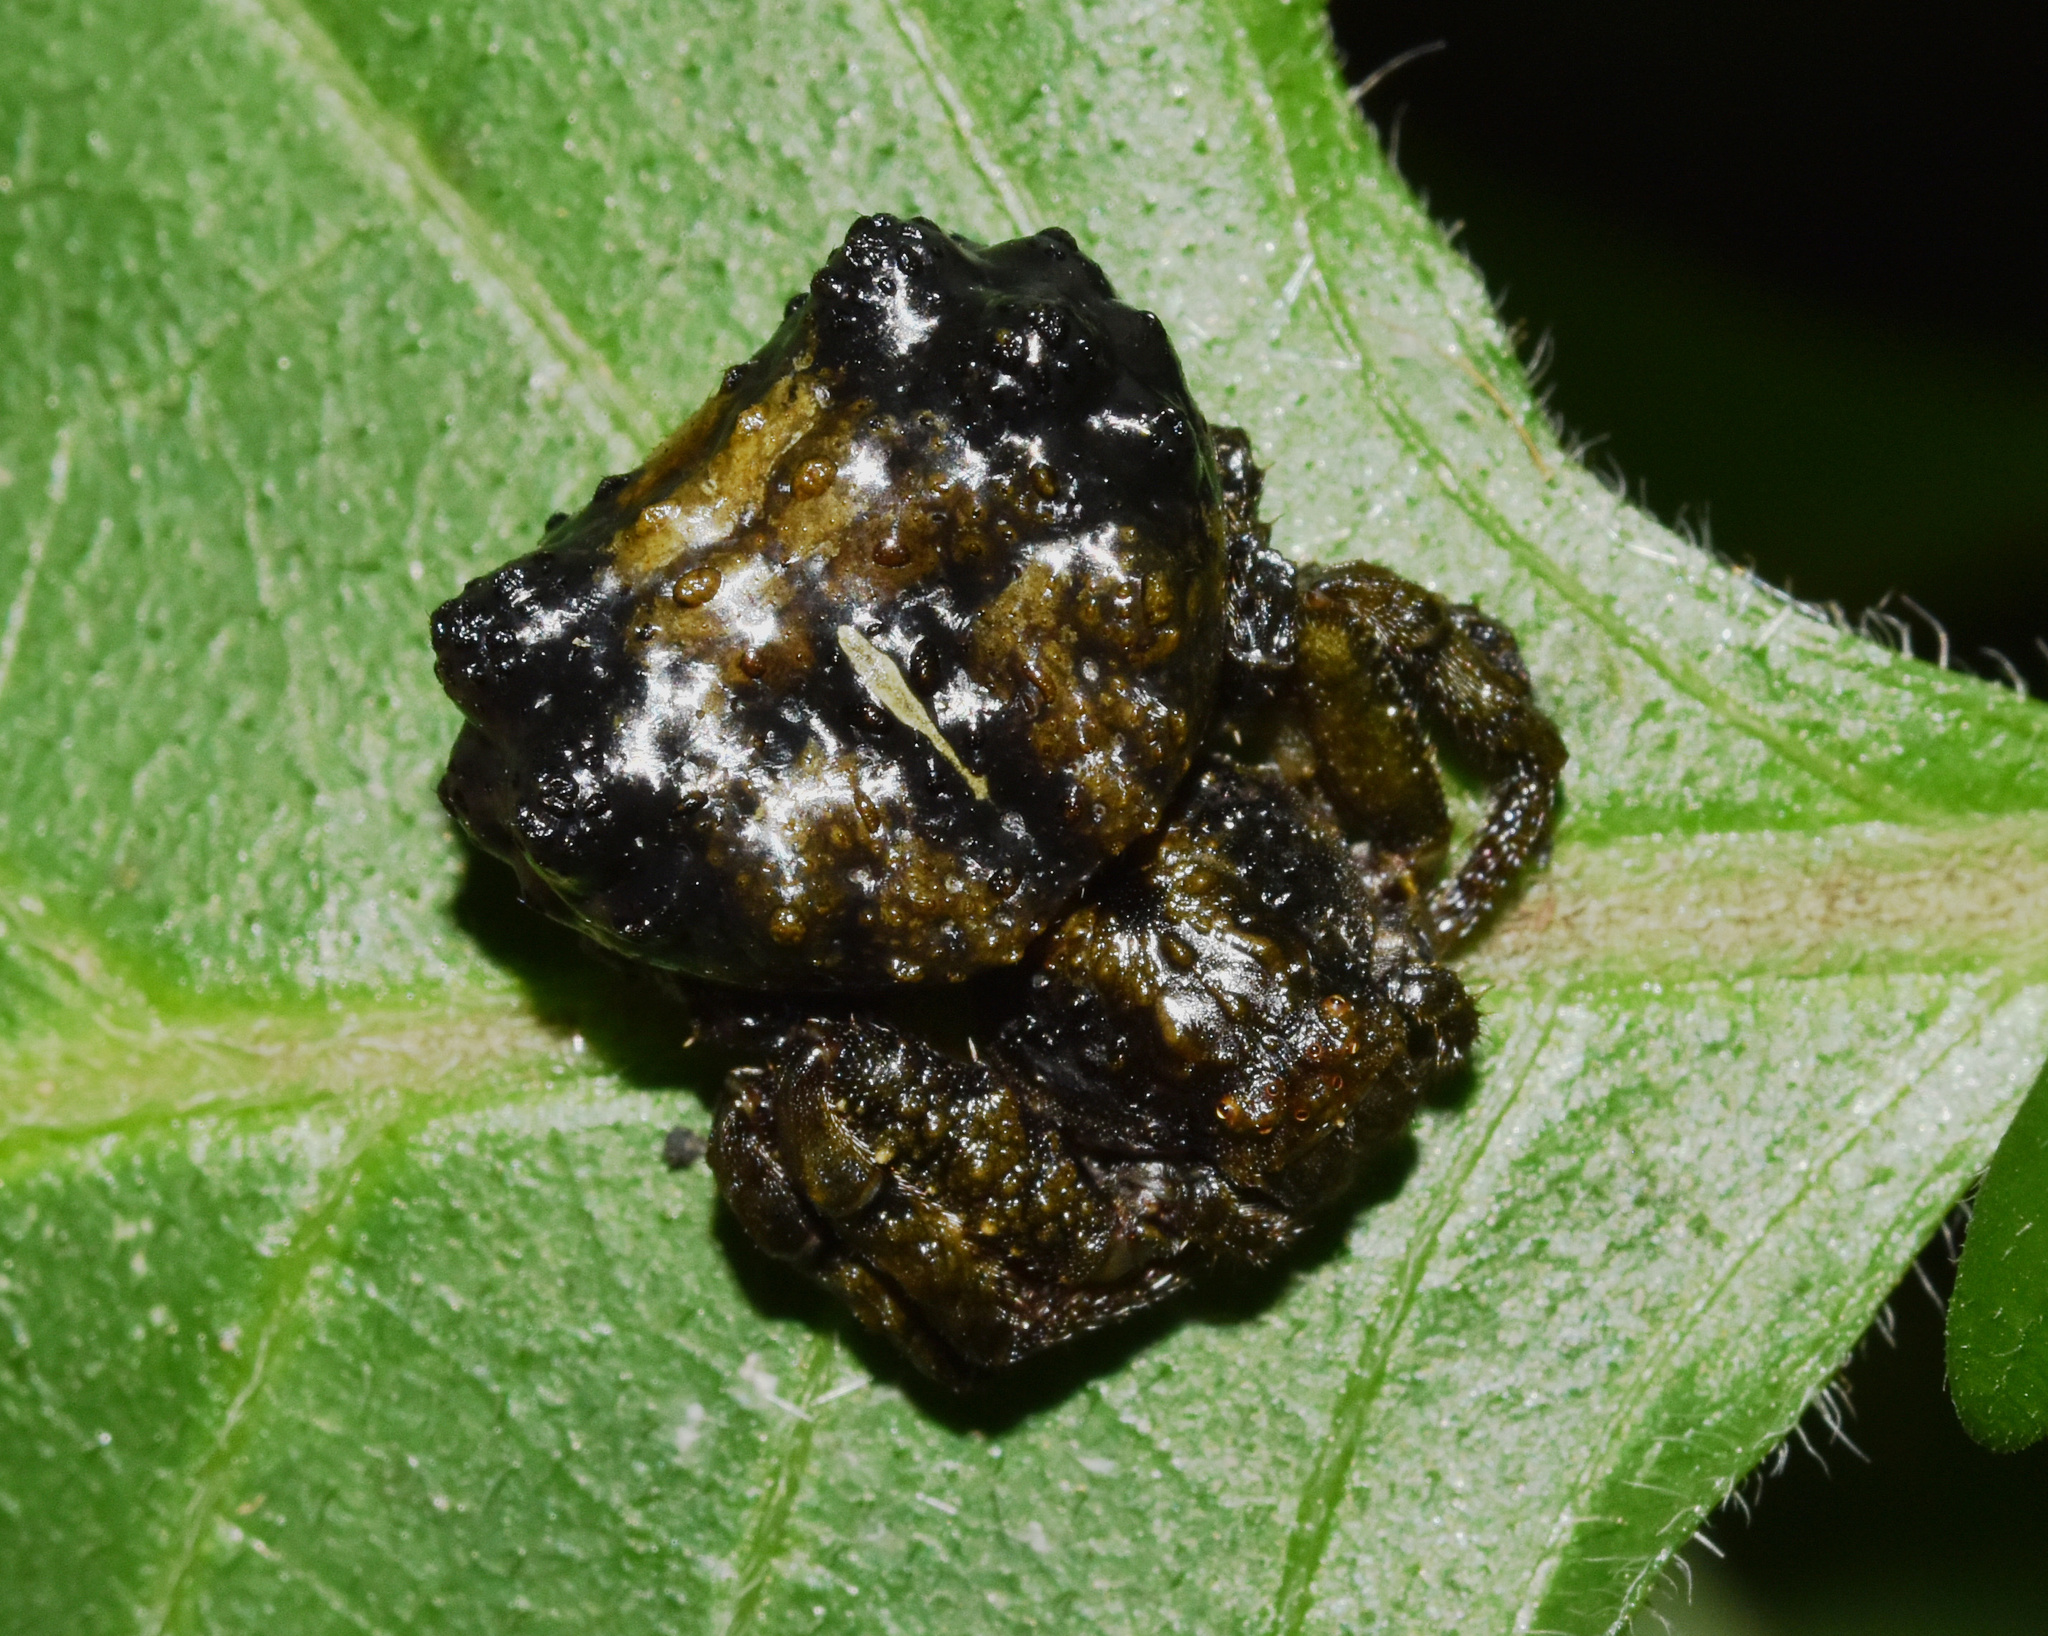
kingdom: Animalia
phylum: Arthropoda
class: Arachnida
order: Araneae
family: Thomisidae
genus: Phrynarachne
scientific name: Phrynarachne rugosa
